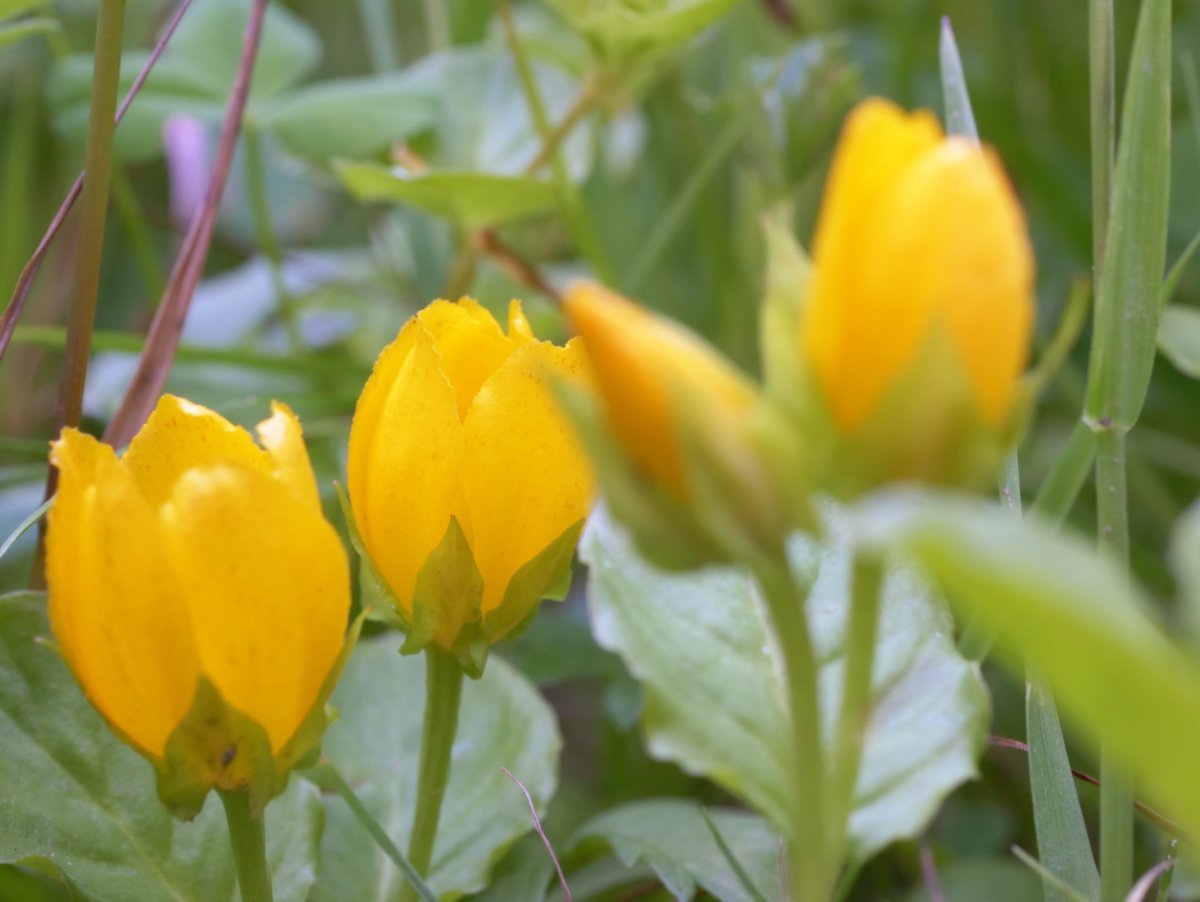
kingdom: Plantae
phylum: Tracheophyta
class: Magnoliopsida
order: Ericales
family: Primulaceae
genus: Lysimachia
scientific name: Lysimachia nummularia
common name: Moneywort
